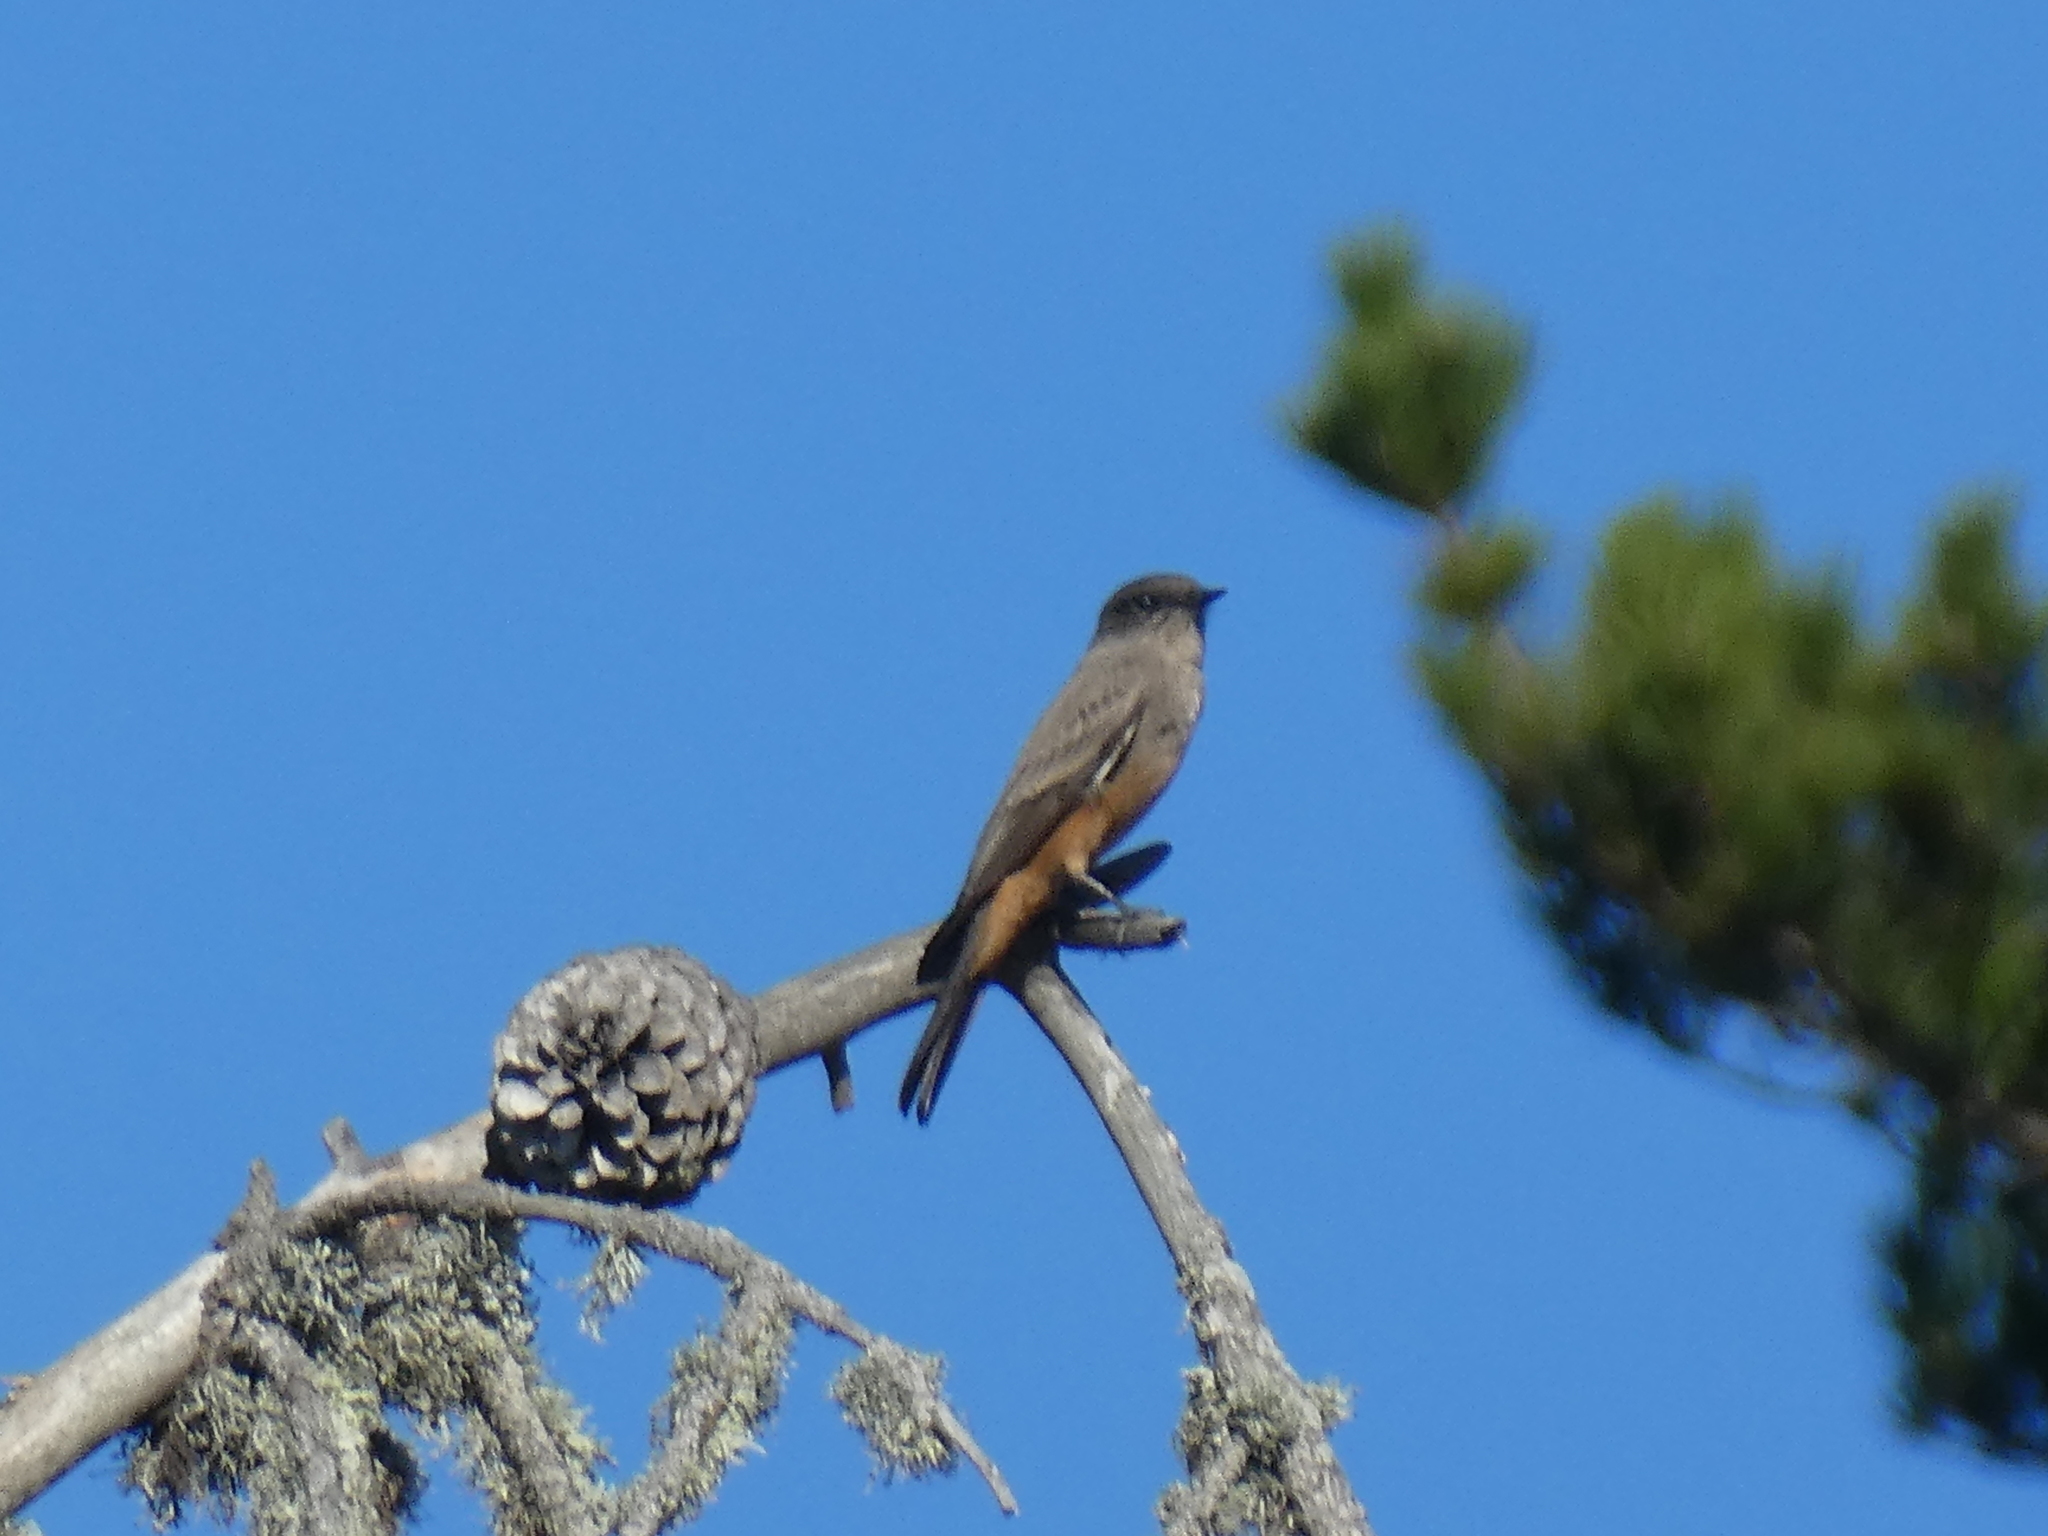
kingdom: Animalia
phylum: Chordata
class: Aves
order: Passeriformes
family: Tyrannidae
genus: Sayornis
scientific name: Sayornis saya
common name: Say's phoebe
